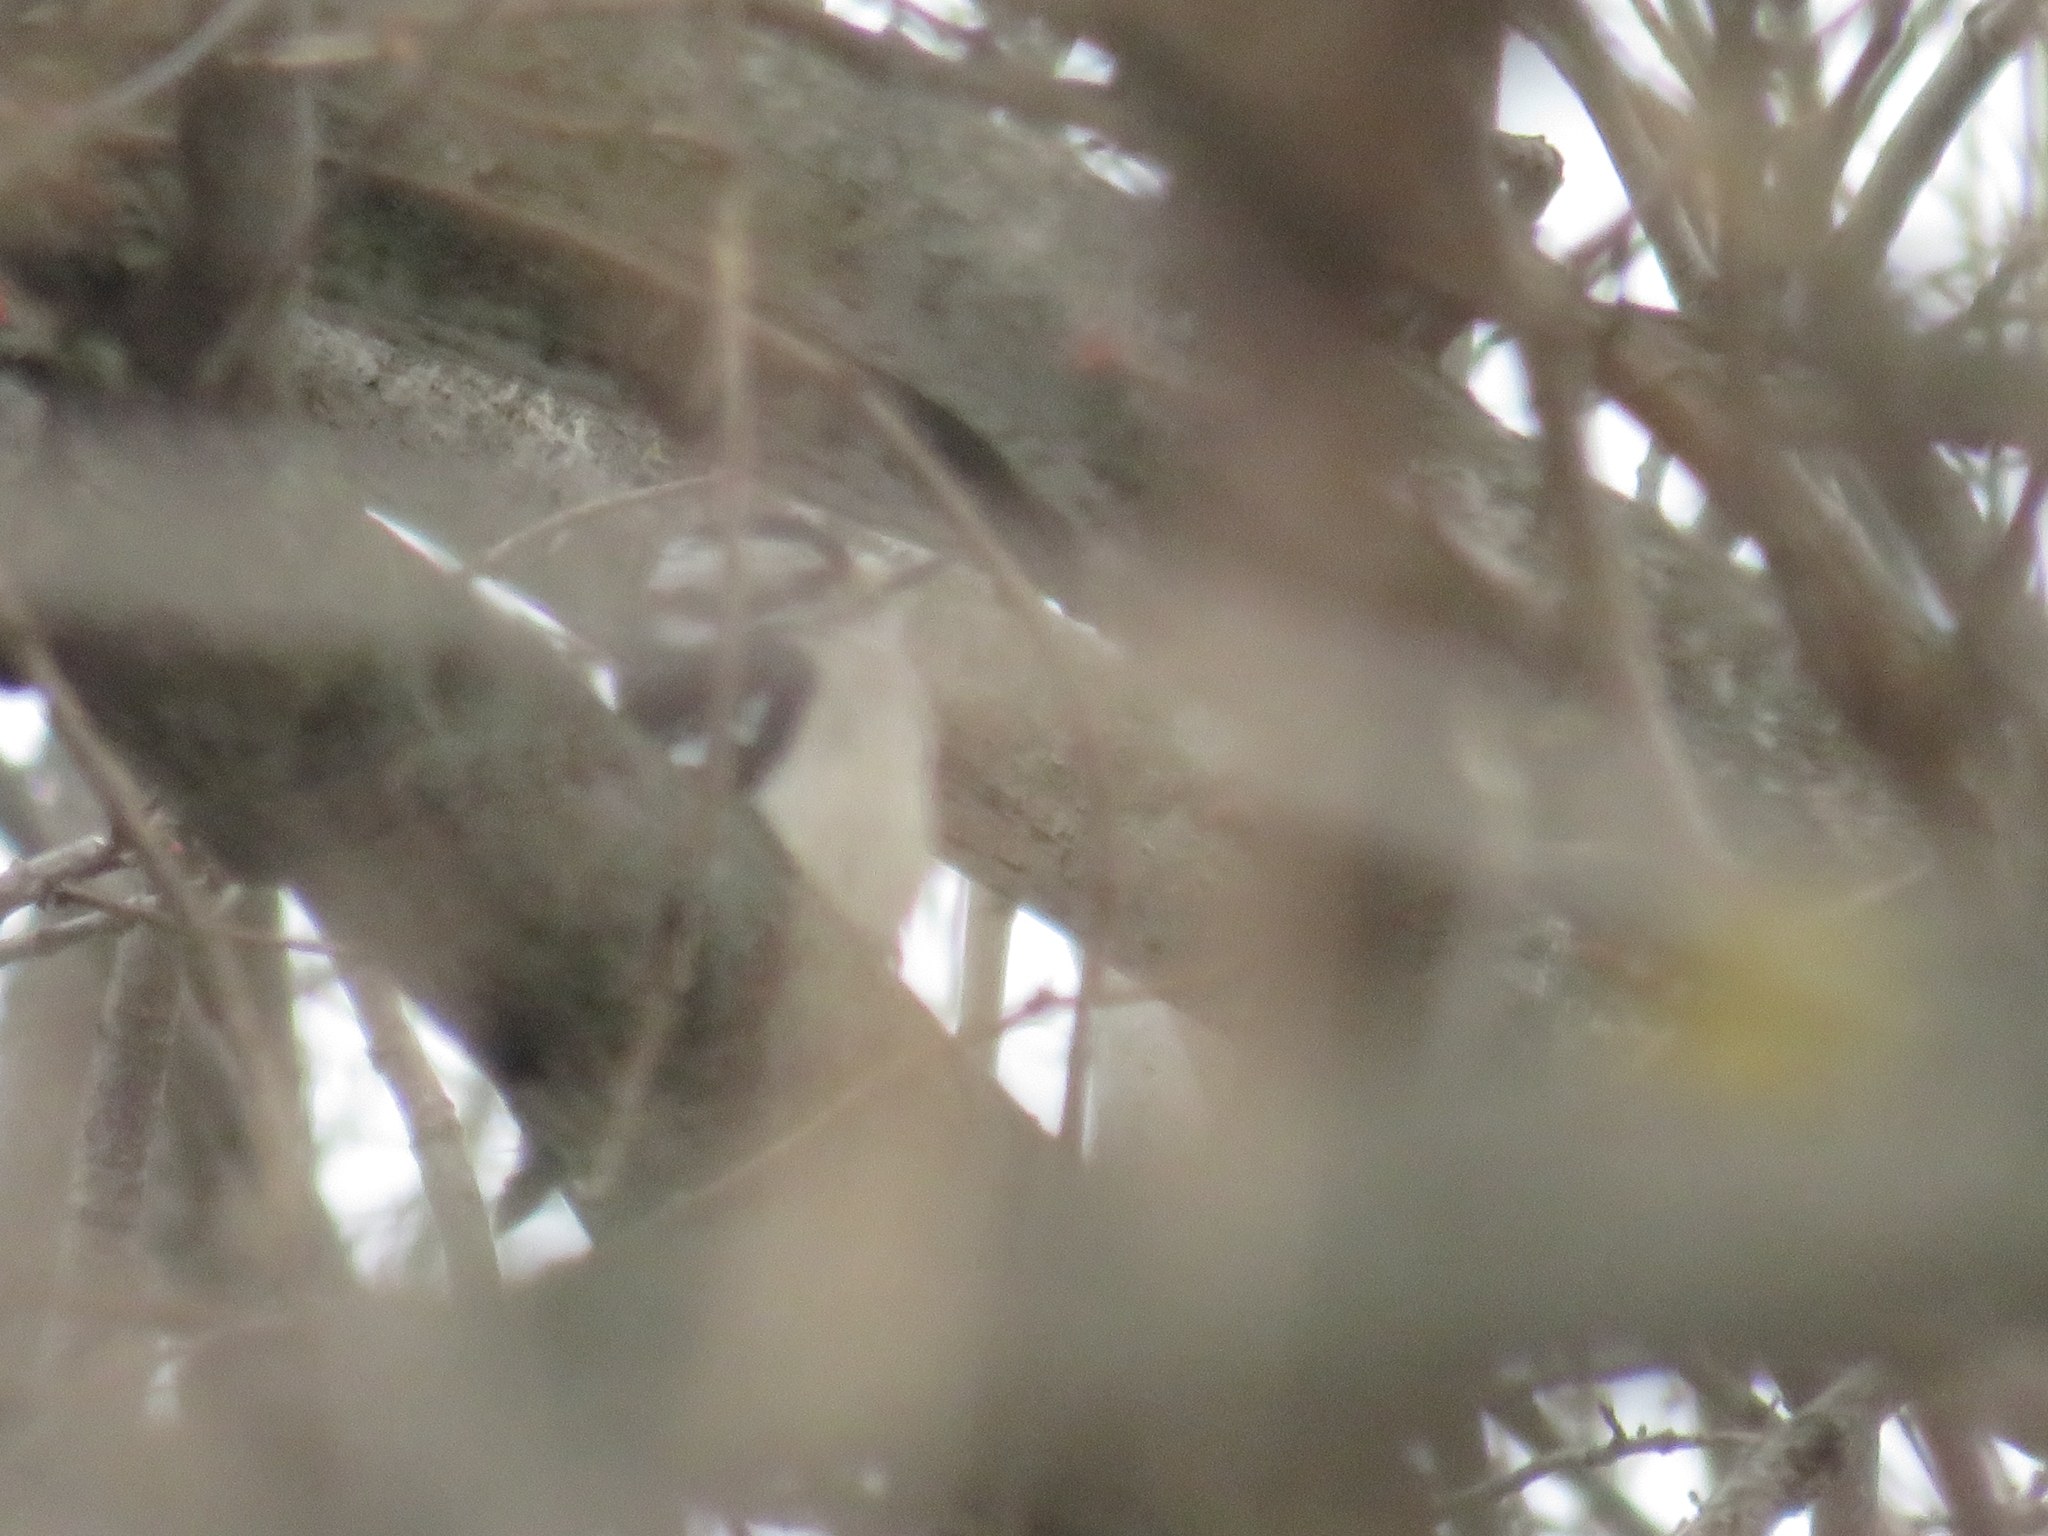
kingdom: Animalia
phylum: Chordata
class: Aves
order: Piciformes
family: Picidae
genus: Dryobates
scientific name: Dryobates pubescens
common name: Downy woodpecker
